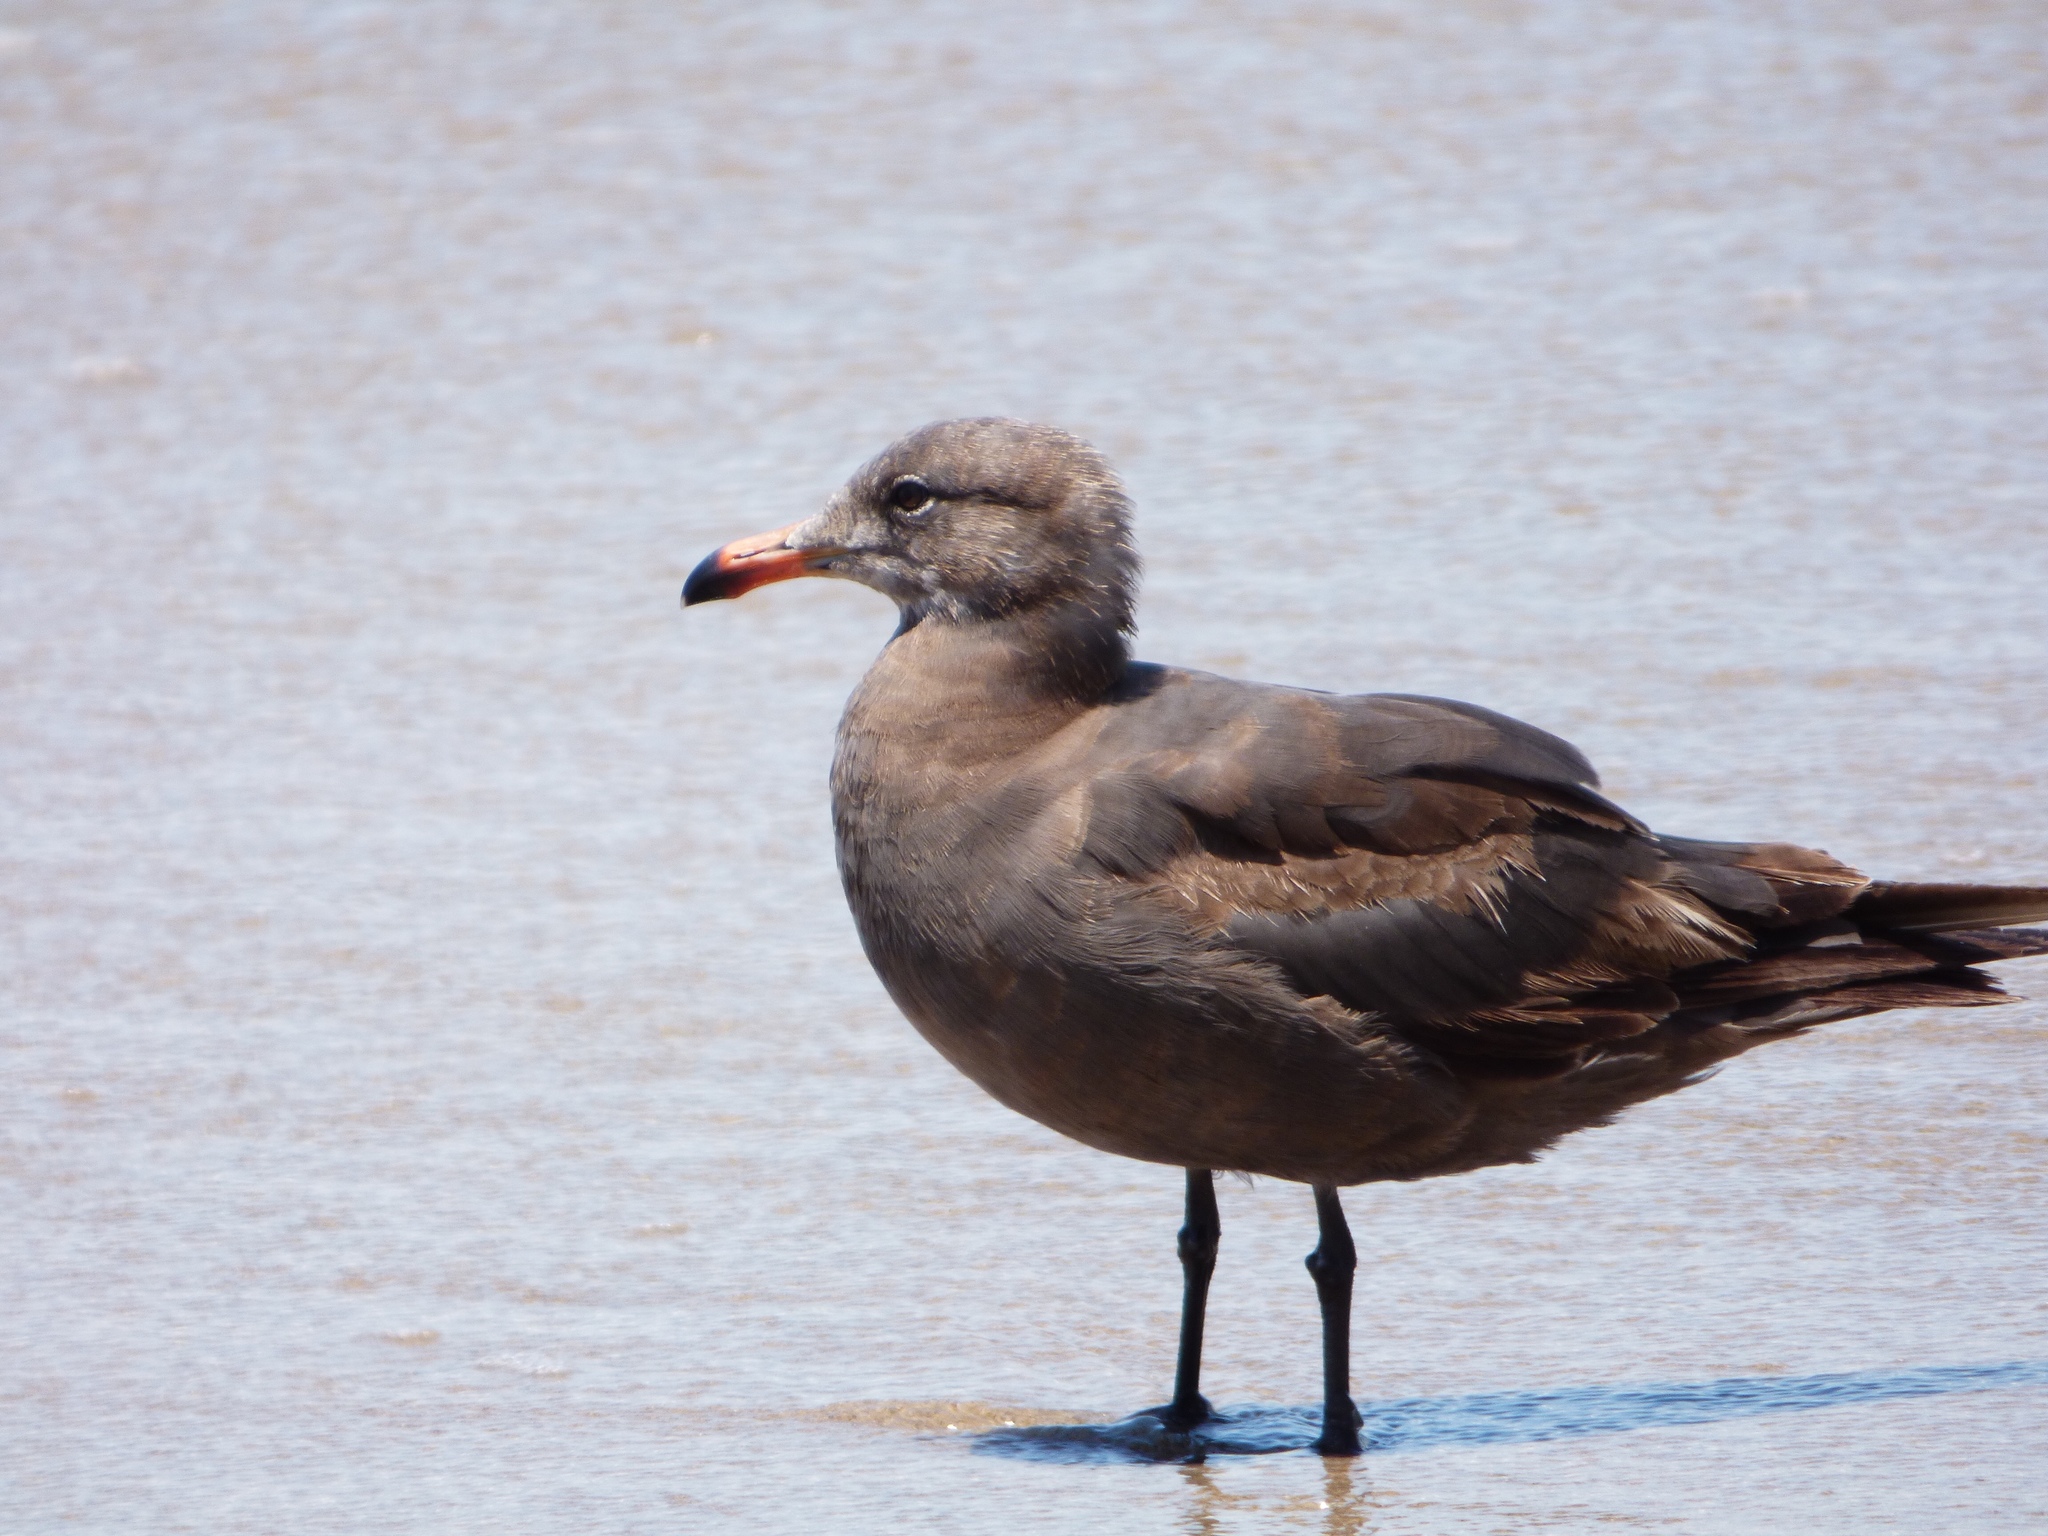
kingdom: Animalia
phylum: Chordata
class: Aves
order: Charadriiformes
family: Laridae
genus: Larus
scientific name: Larus heermanni
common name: Heermann's gull
